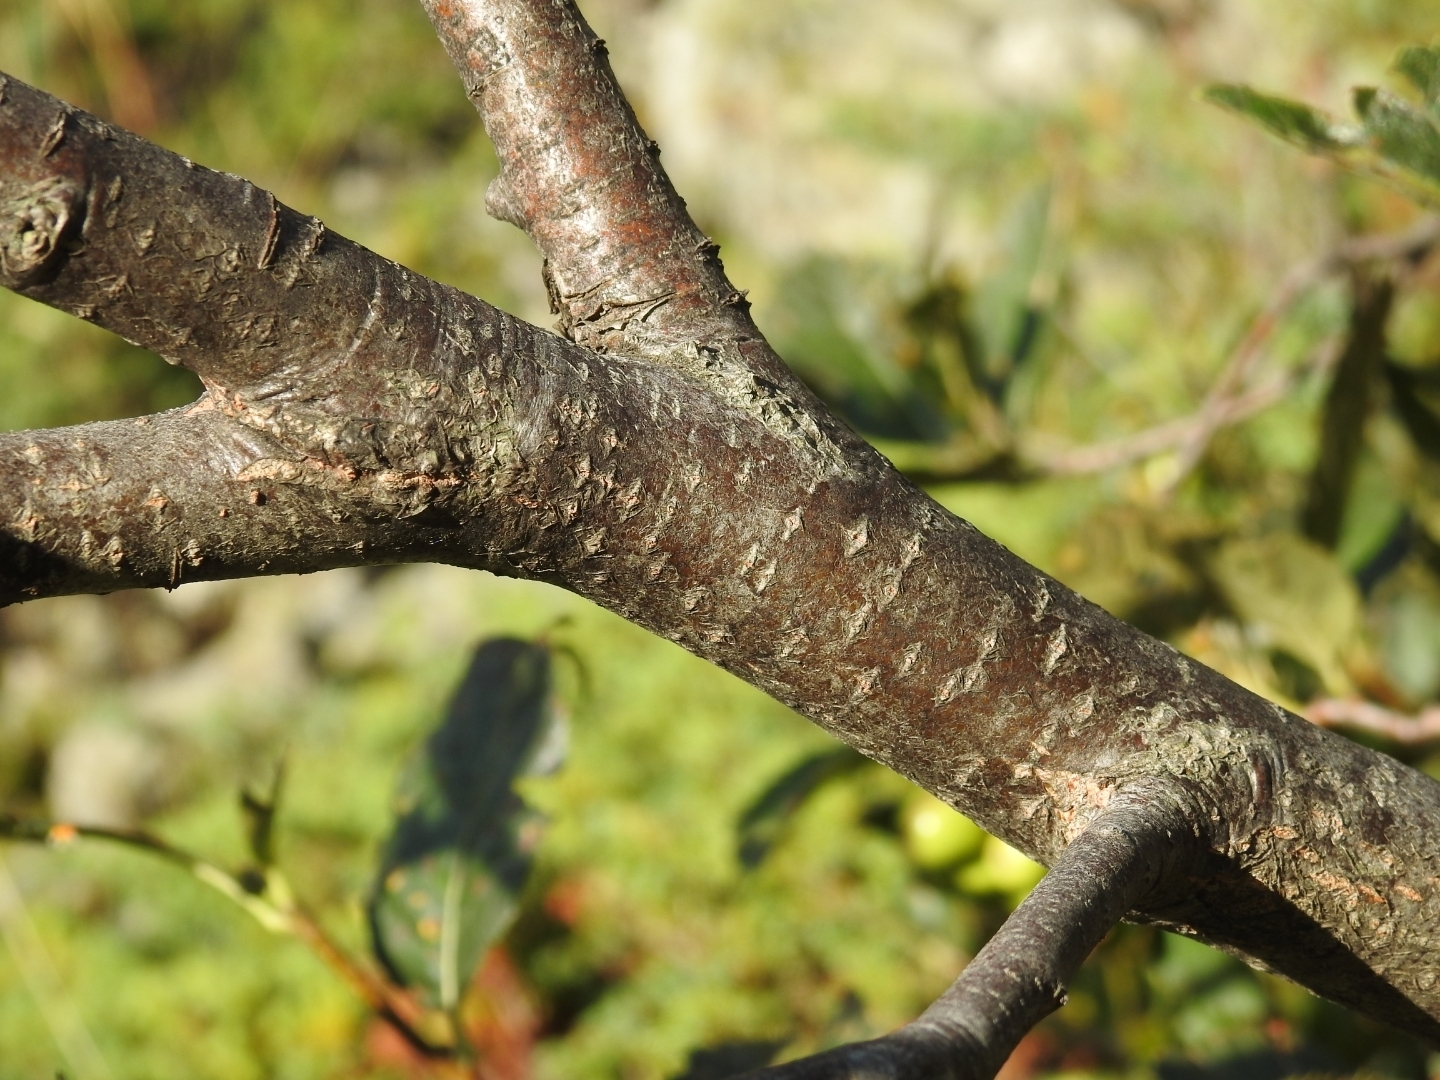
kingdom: Plantae
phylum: Tracheophyta
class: Magnoliopsida
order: Rosales
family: Rosaceae
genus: Chamaemespilus
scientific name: Chamaemespilus alpina
